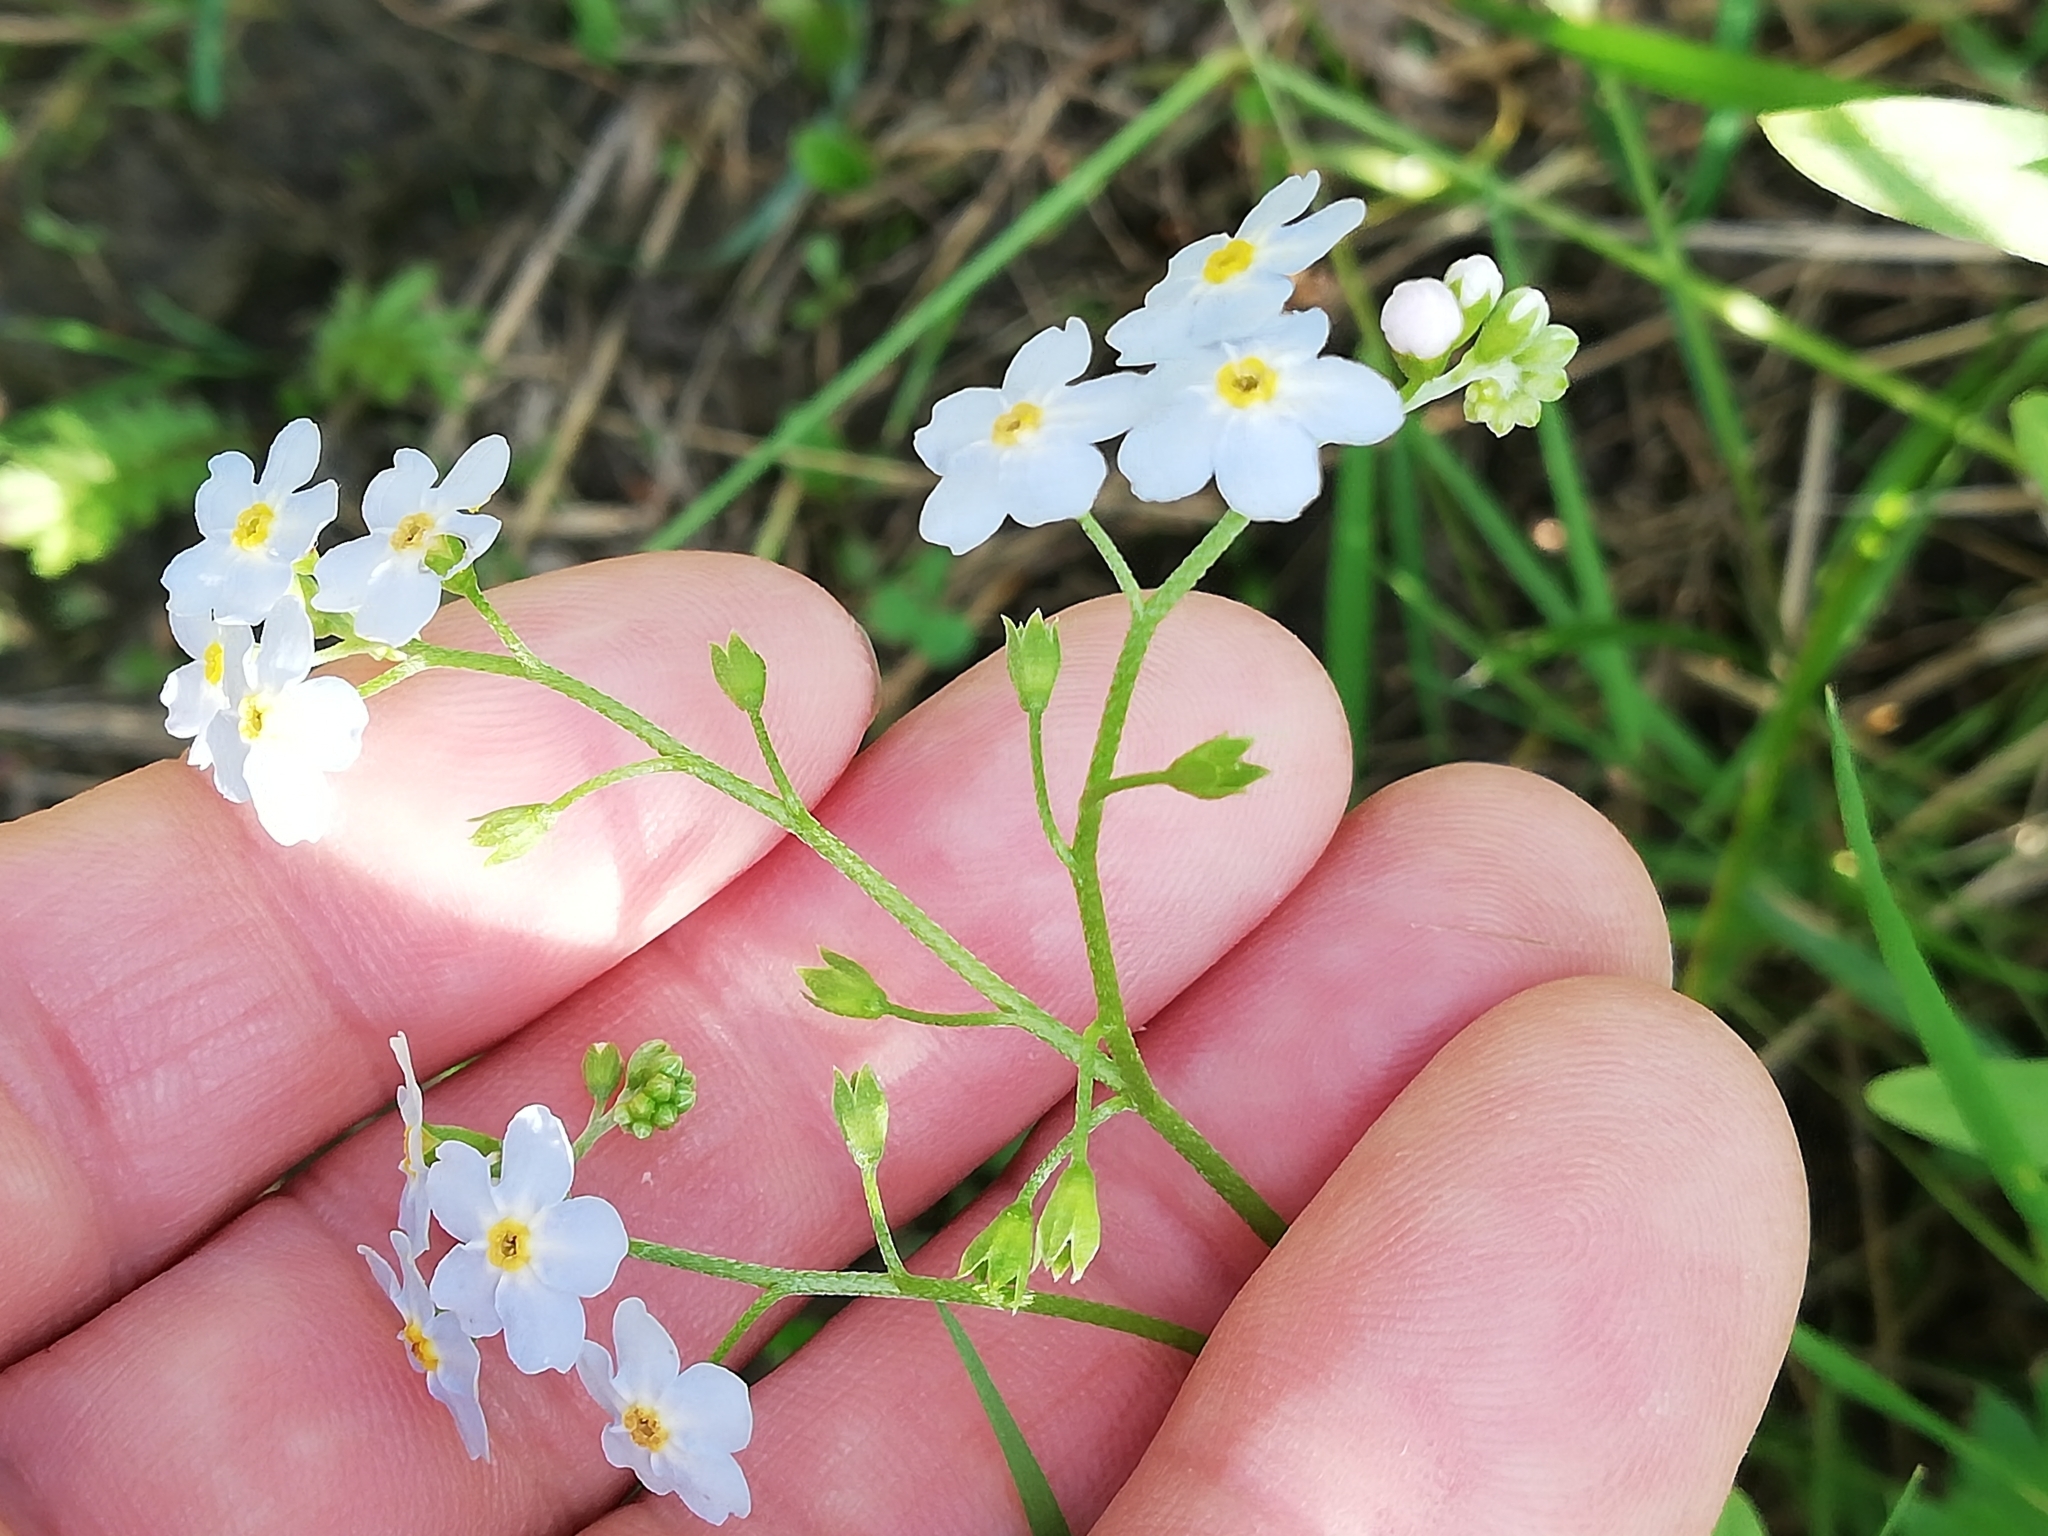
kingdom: Plantae
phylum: Tracheophyta
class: Magnoliopsida
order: Boraginales
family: Boraginaceae
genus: Myosotis
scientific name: Myosotis scorpioides
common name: Water forget-me-not
